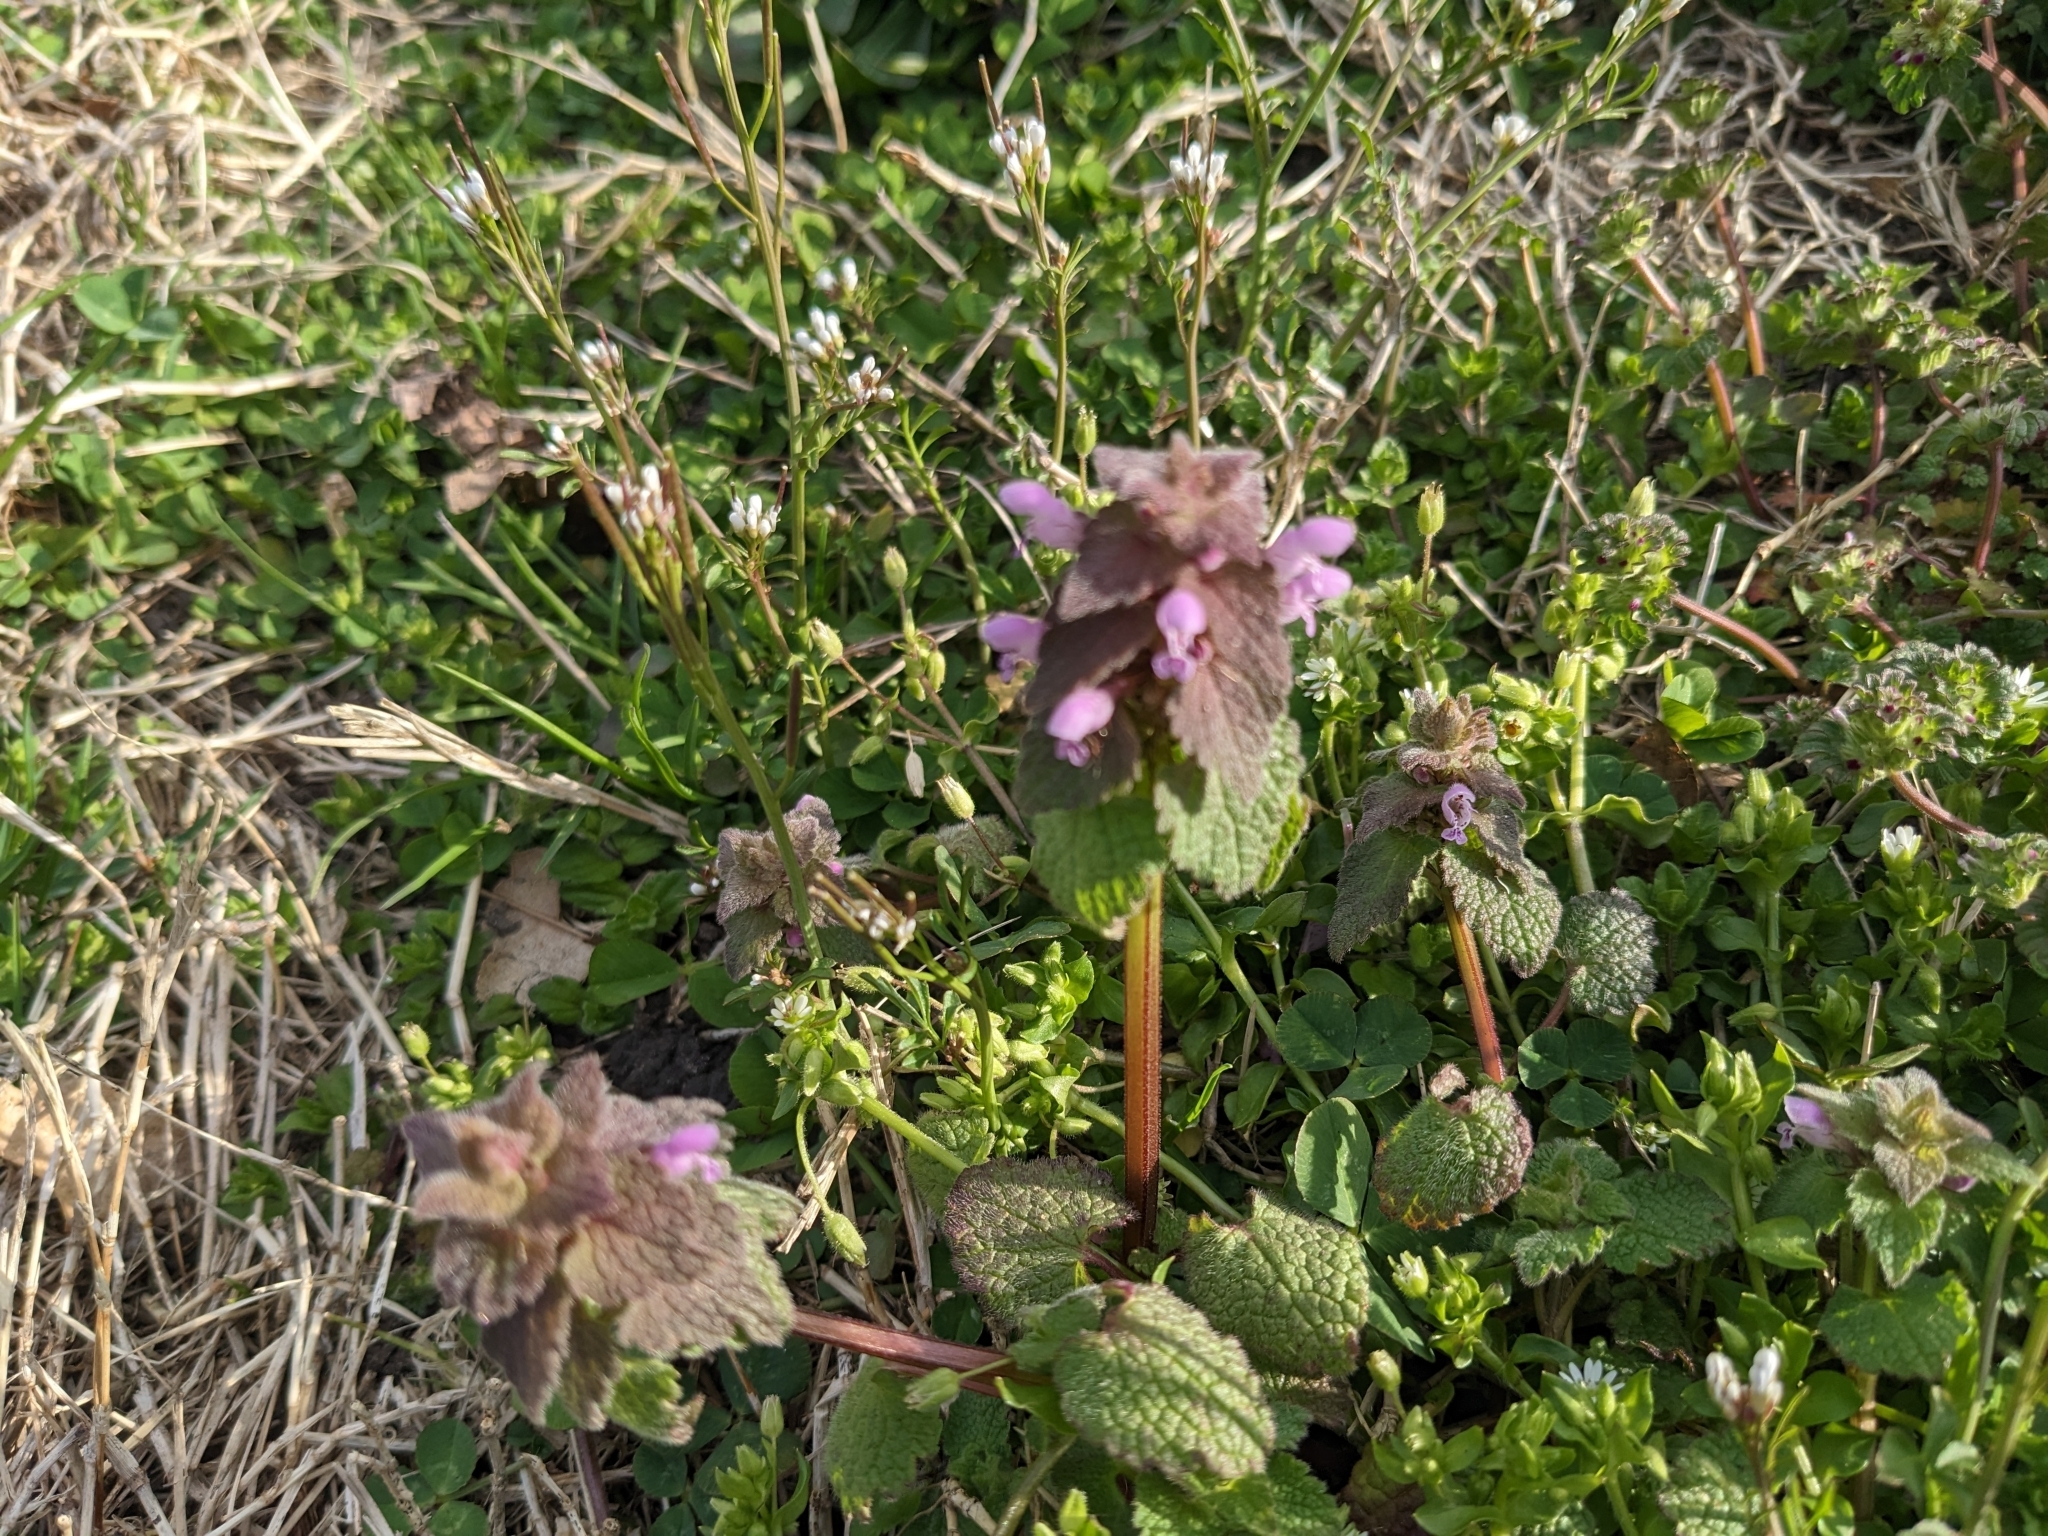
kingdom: Plantae
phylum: Tracheophyta
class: Magnoliopsida
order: Lamiales
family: Lamiaceae
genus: Lamium
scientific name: Lamium purpureum
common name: Red dead-nettle
